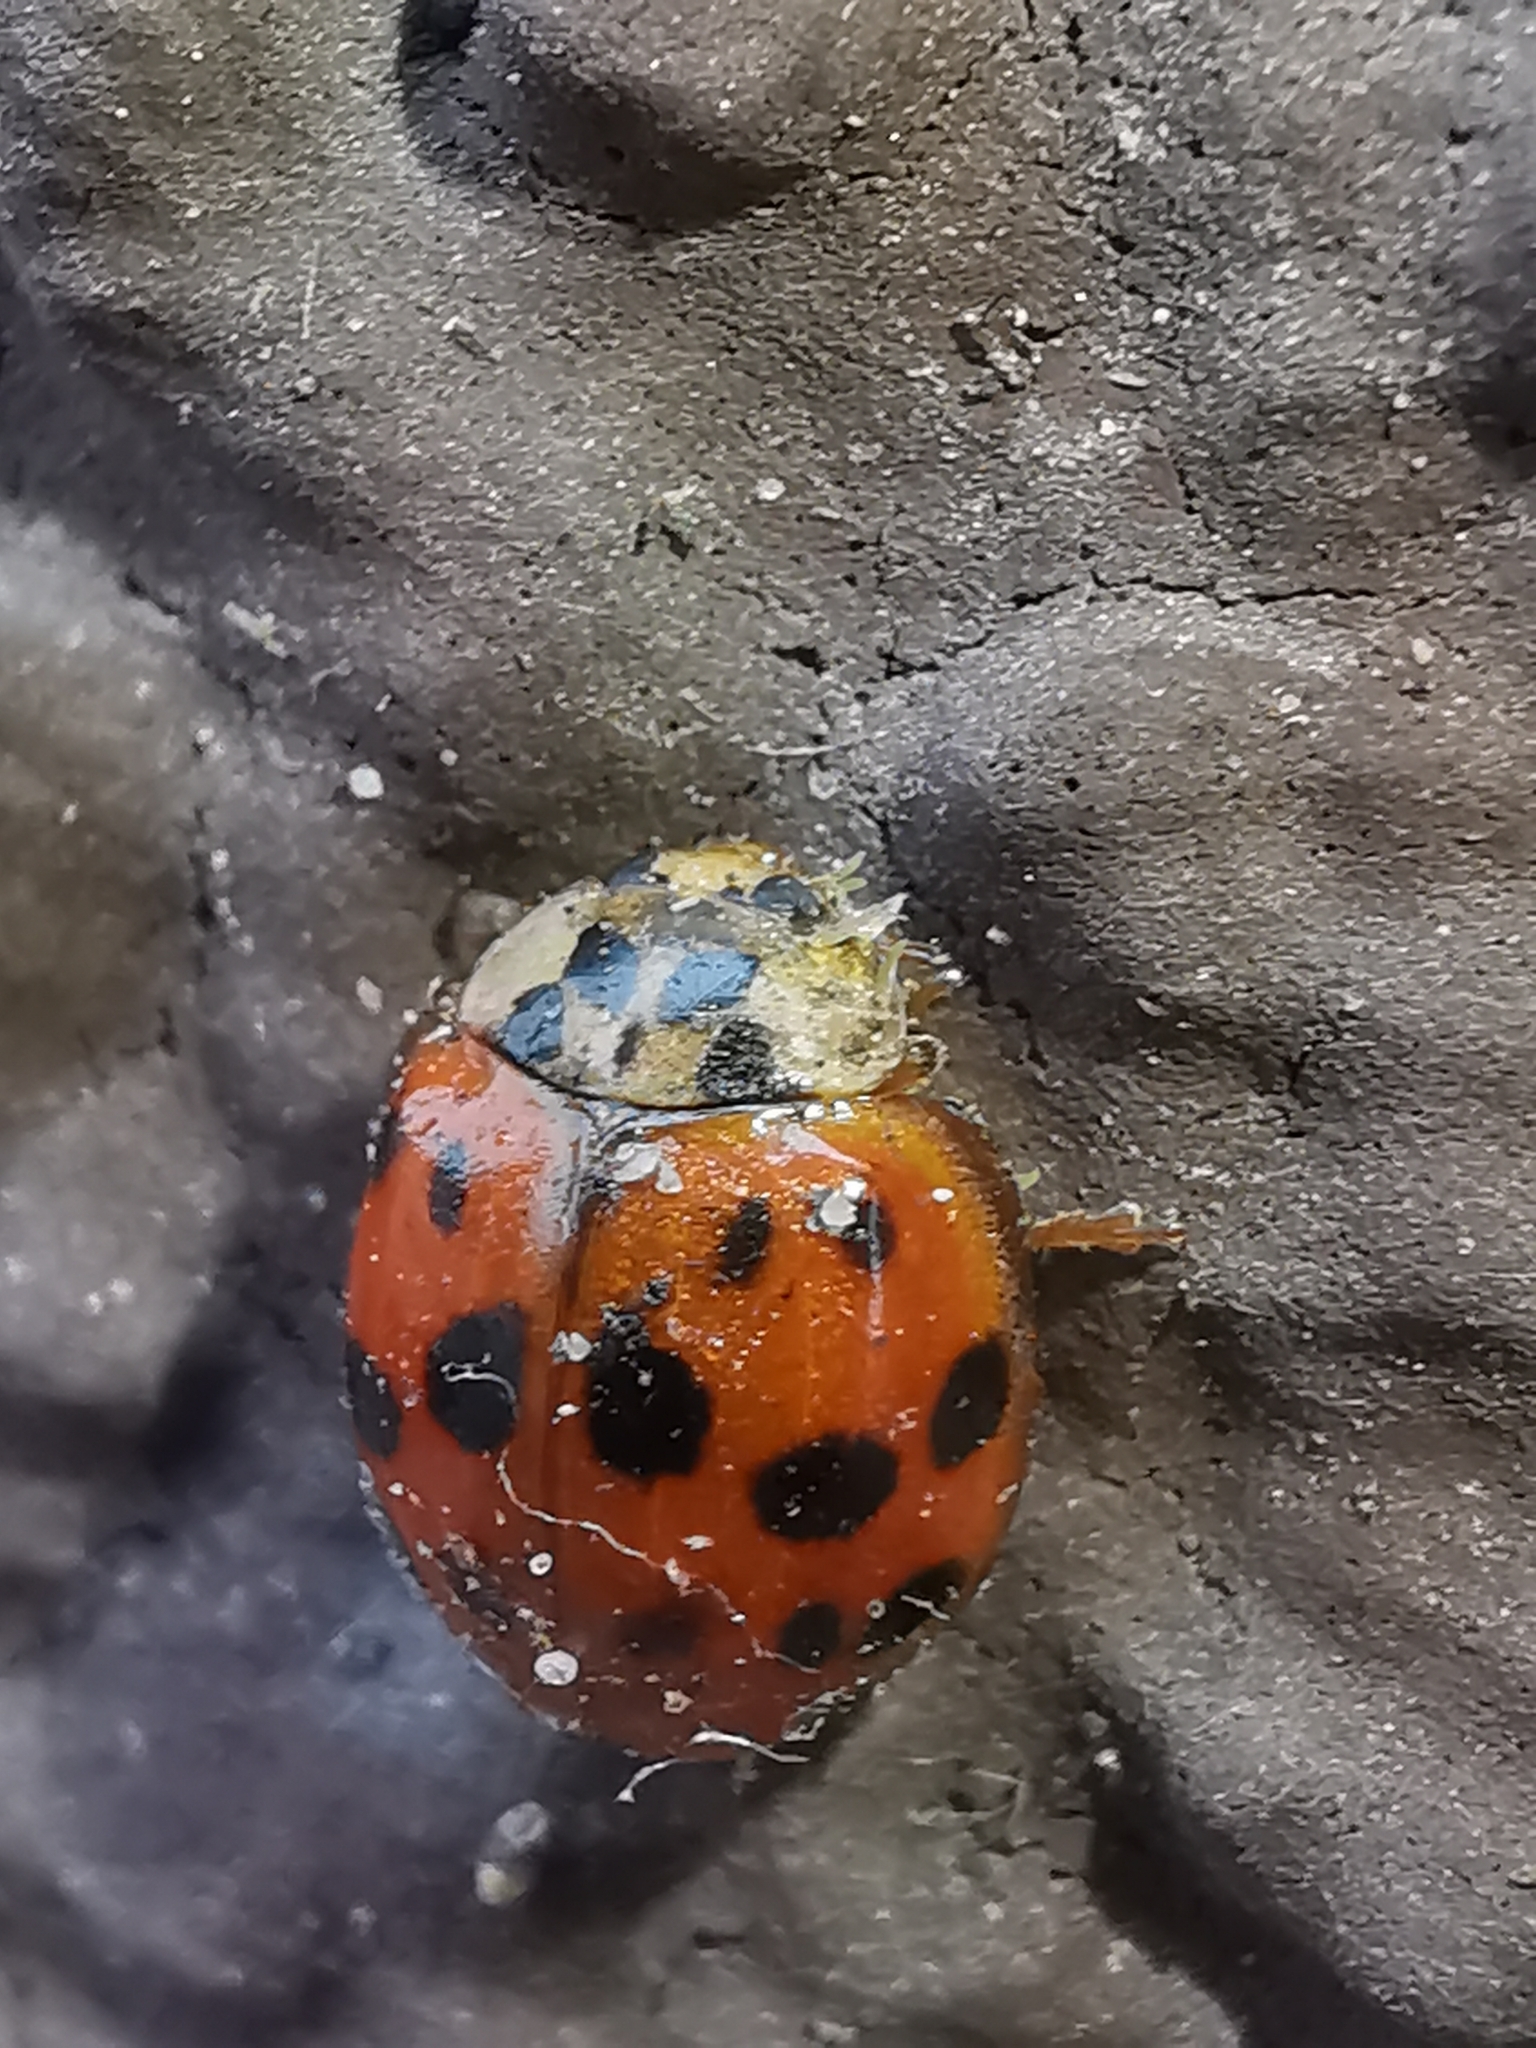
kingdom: Animalia
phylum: Arthropoda
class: Insecta
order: Coleoptera
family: Coccinellidae
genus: Harmonia
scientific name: Harmonia axyridis
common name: Harlequin ladybird
